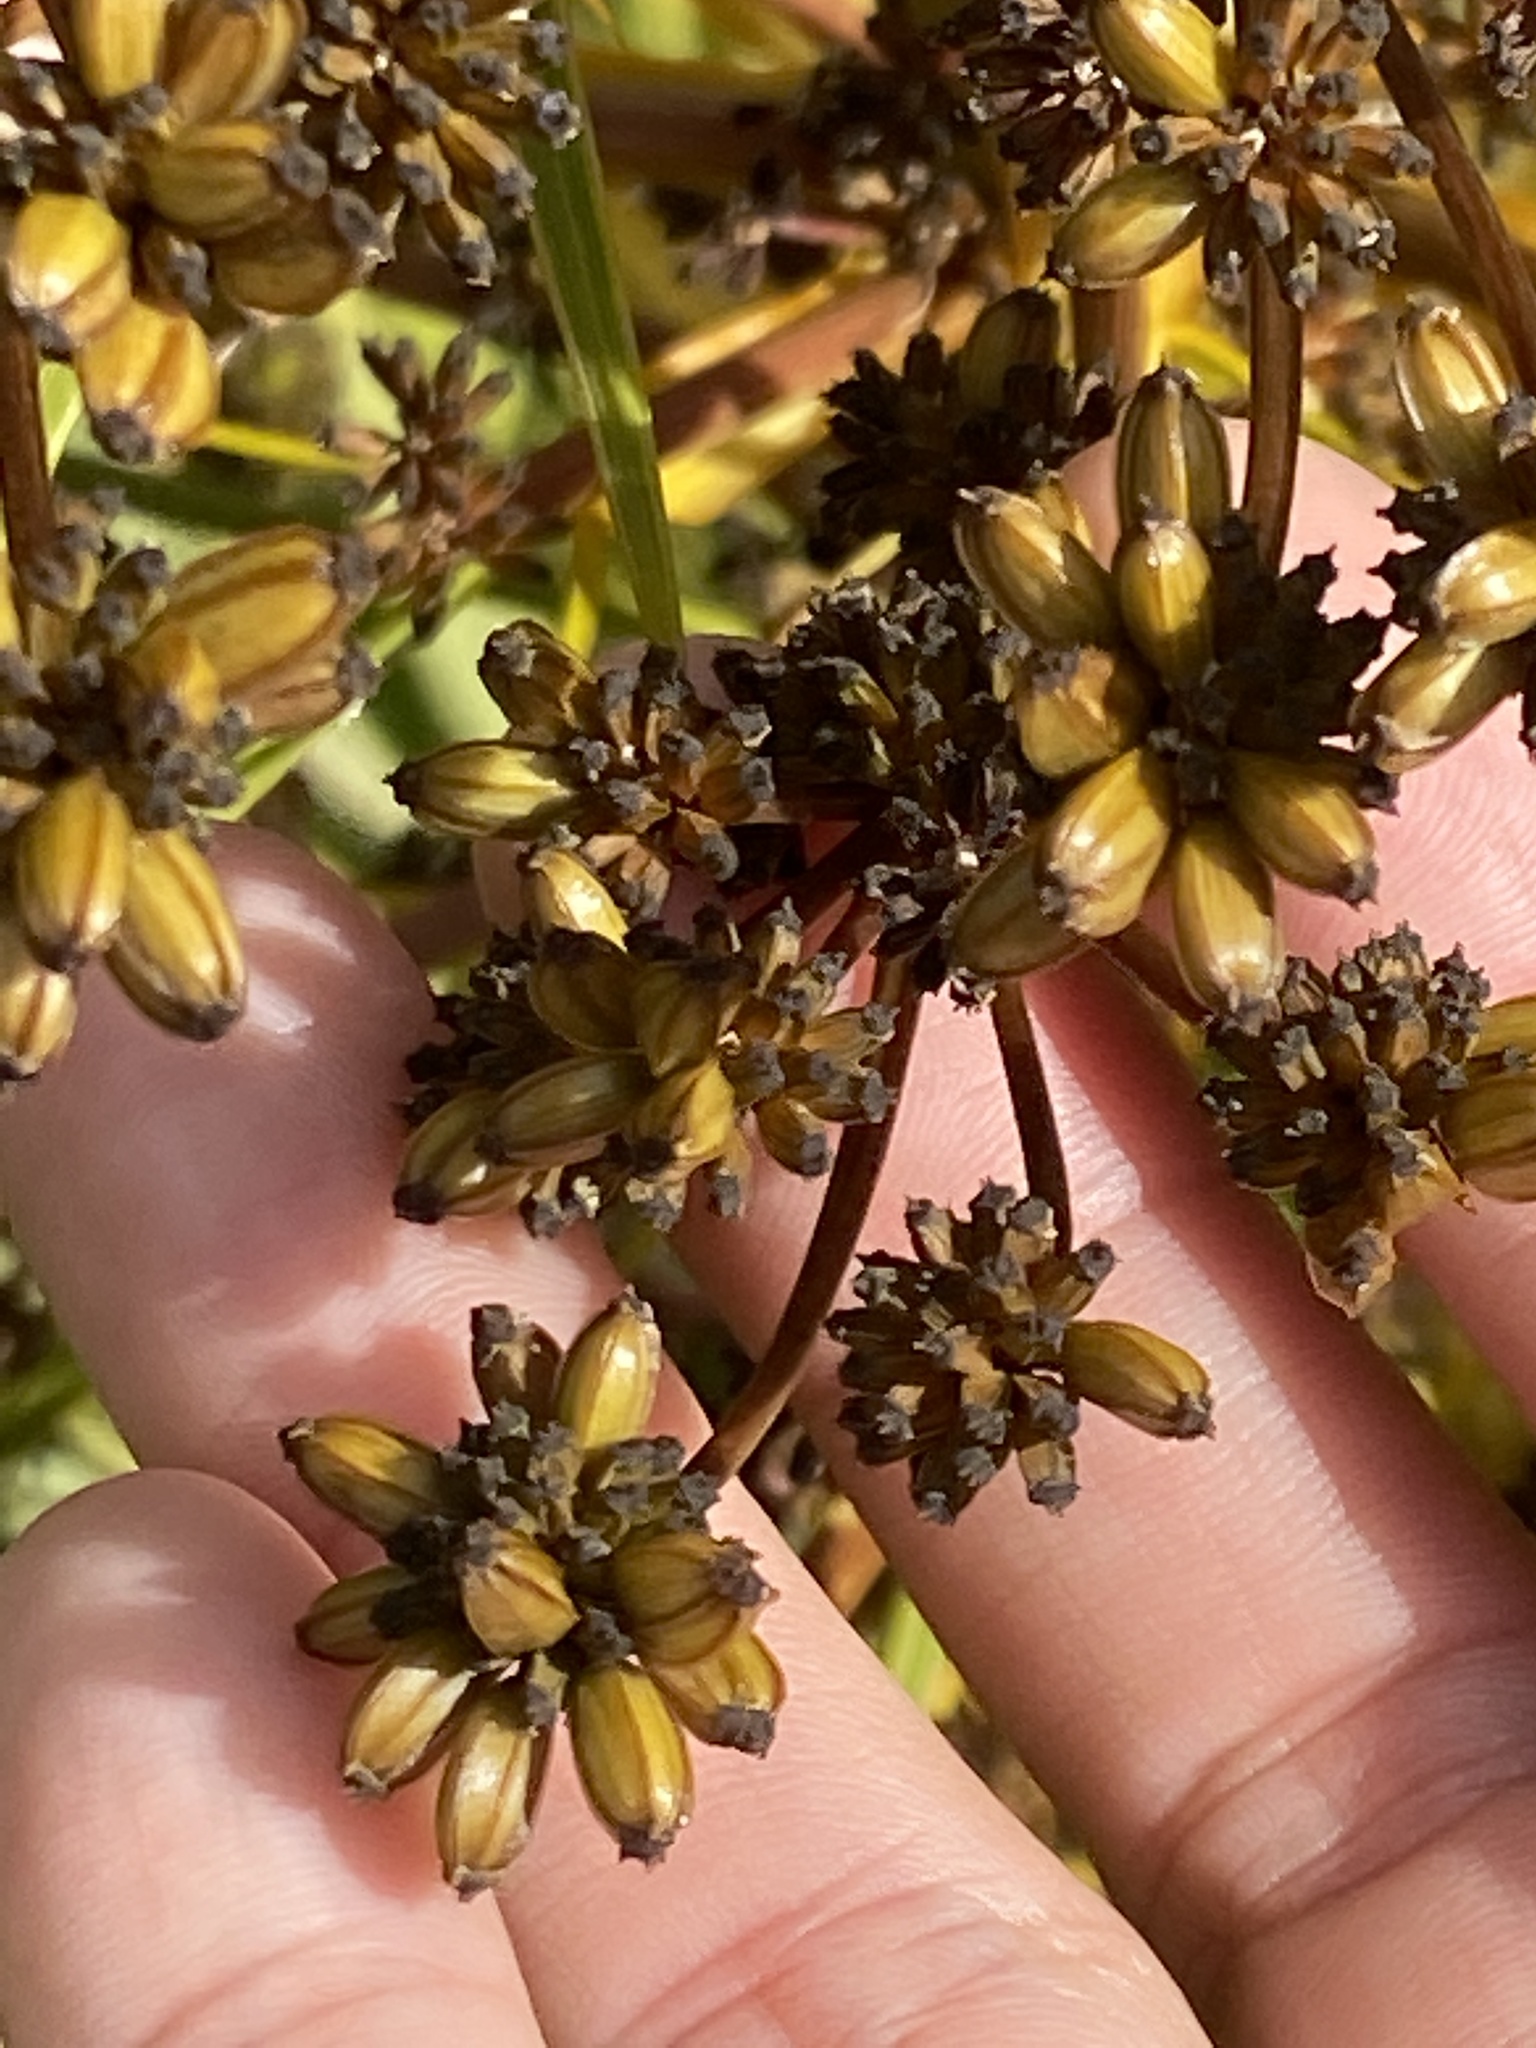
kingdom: Plantae
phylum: Tracheophyta
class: Magnoliopsida
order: Apiales
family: Apiaceae
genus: Aciphylla
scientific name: Aciphylla horrida
